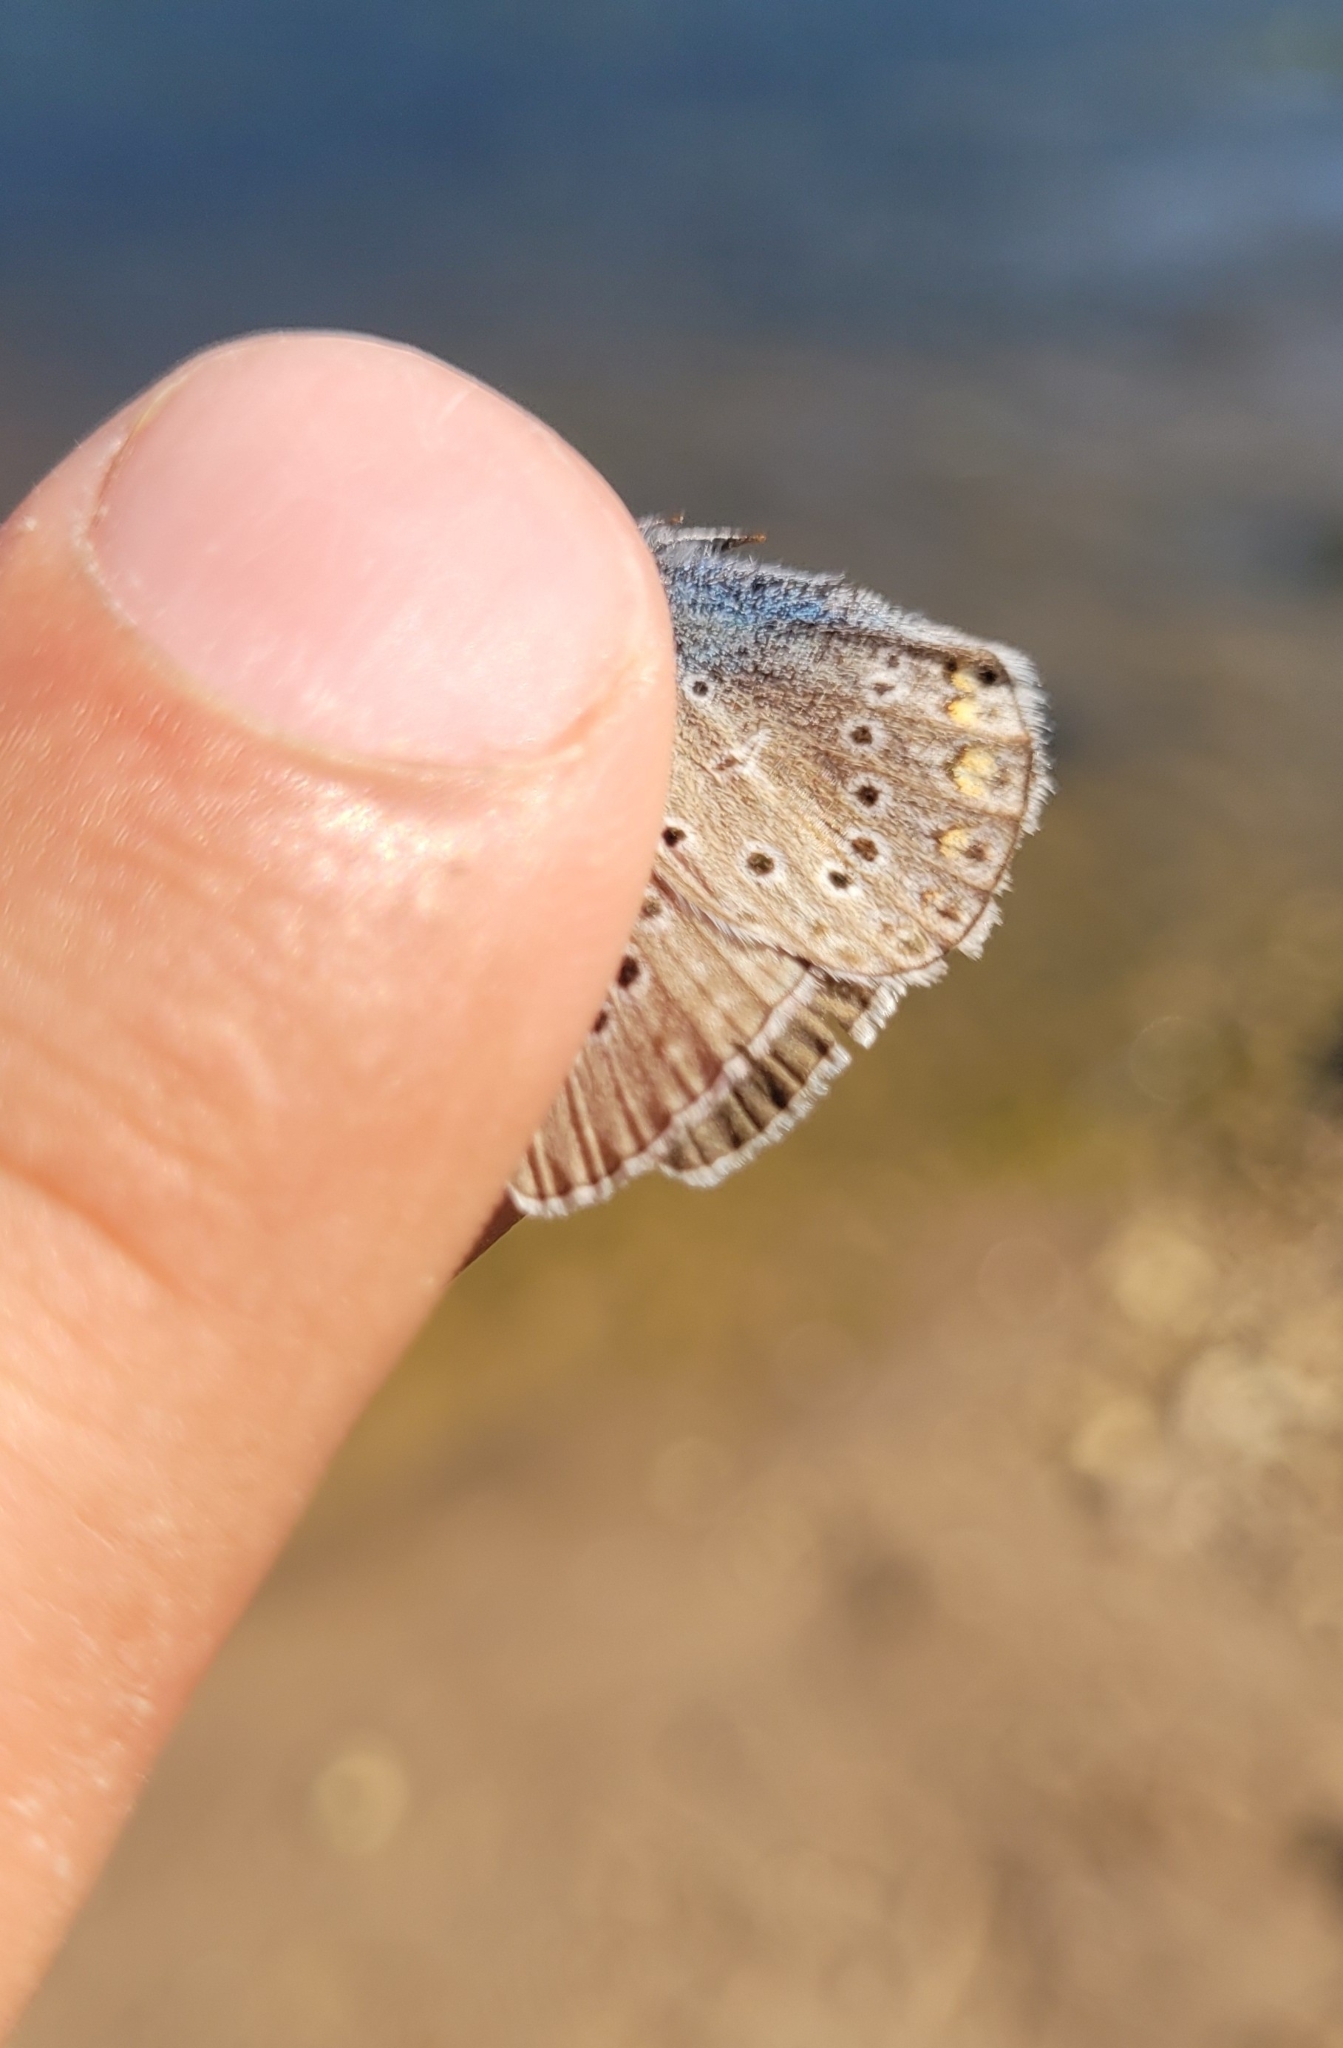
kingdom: Animalia
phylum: Arthropoda
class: Insecta
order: Lepidoptera
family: Lycaenidae
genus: Plebejus
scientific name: Plebejus amanda
